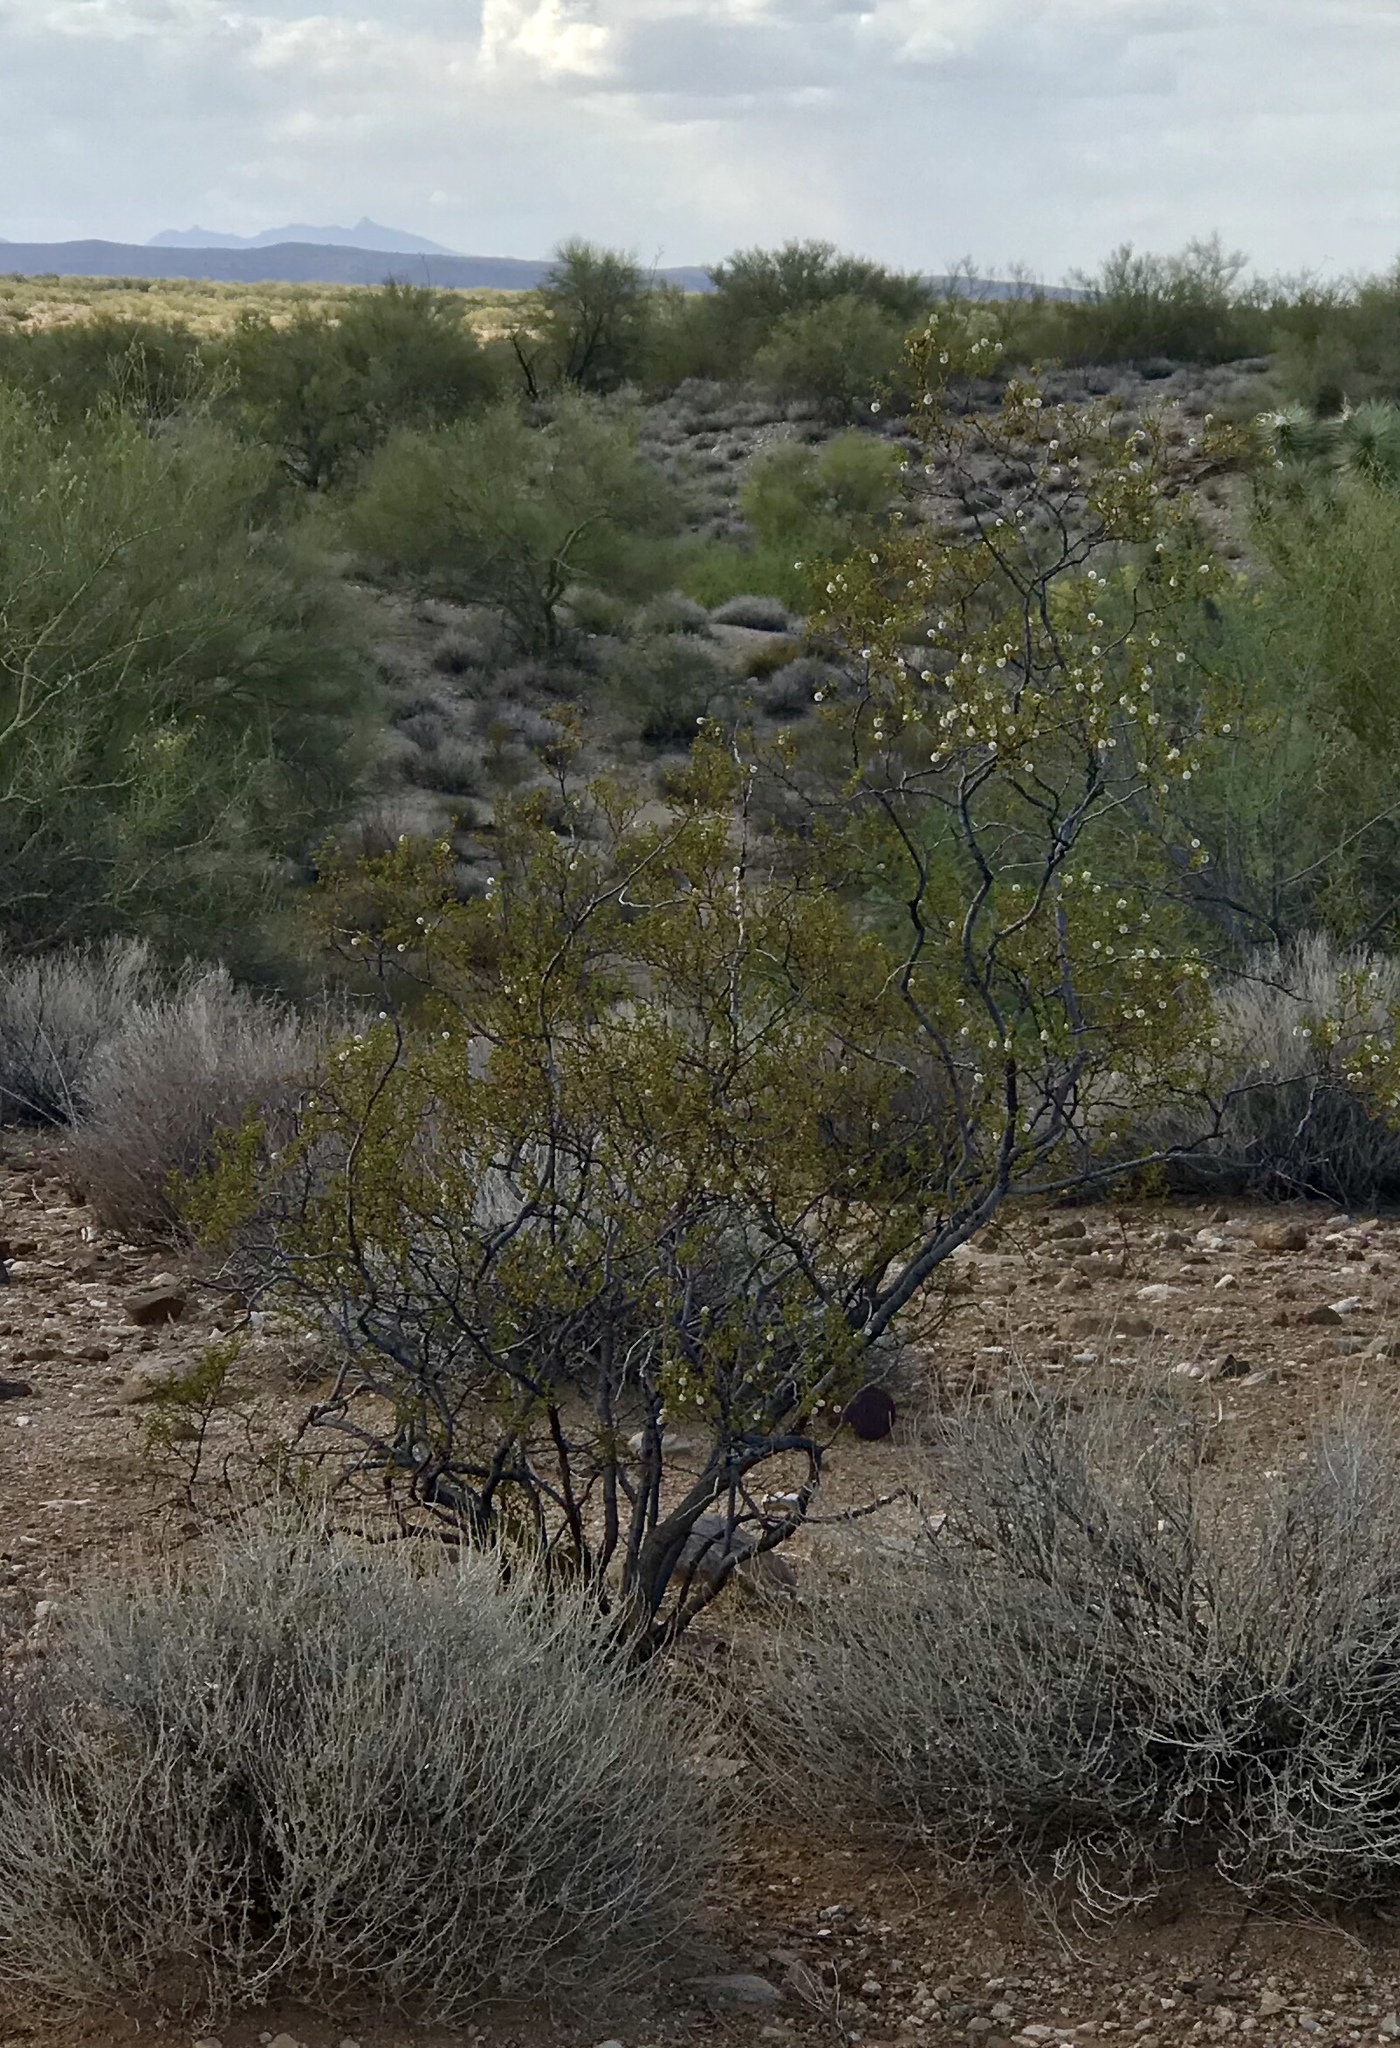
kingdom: Plantae
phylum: Tracheophyta
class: Magnoliopsida
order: Zygophyllales
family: Zygophyllaceae
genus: Larrea
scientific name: Larrea tridentata
